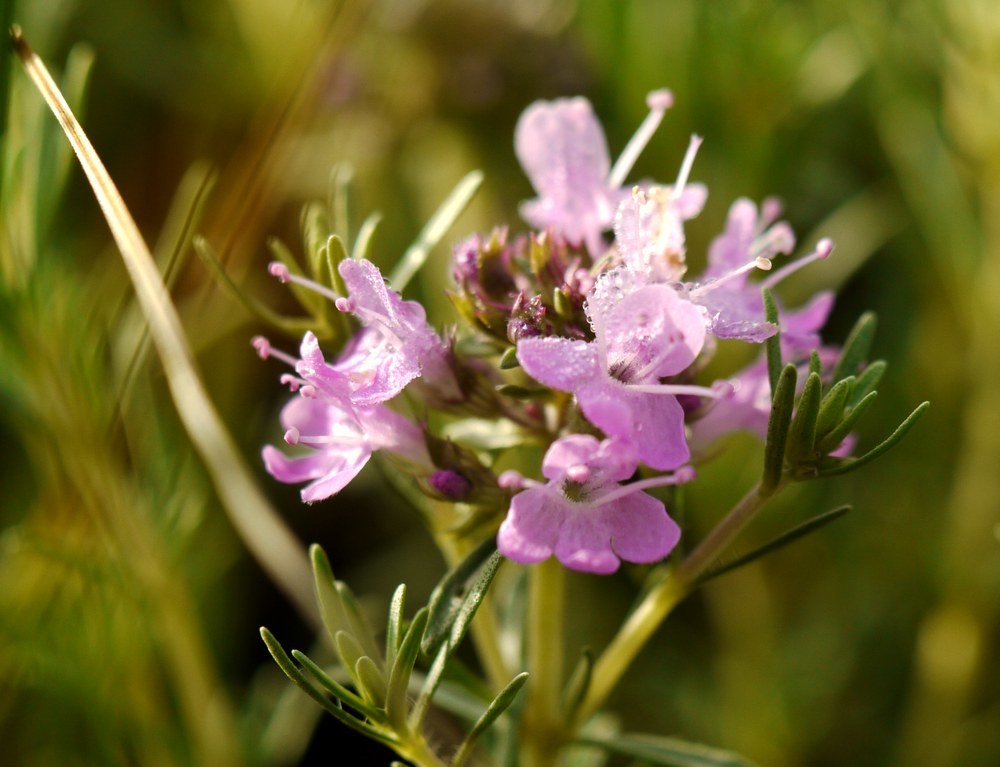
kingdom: Plantae
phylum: Tracheophyta
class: Magnoliopsida
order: Lamiales
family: Lamiaceae
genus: Thymus
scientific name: Thymus pallasianus
